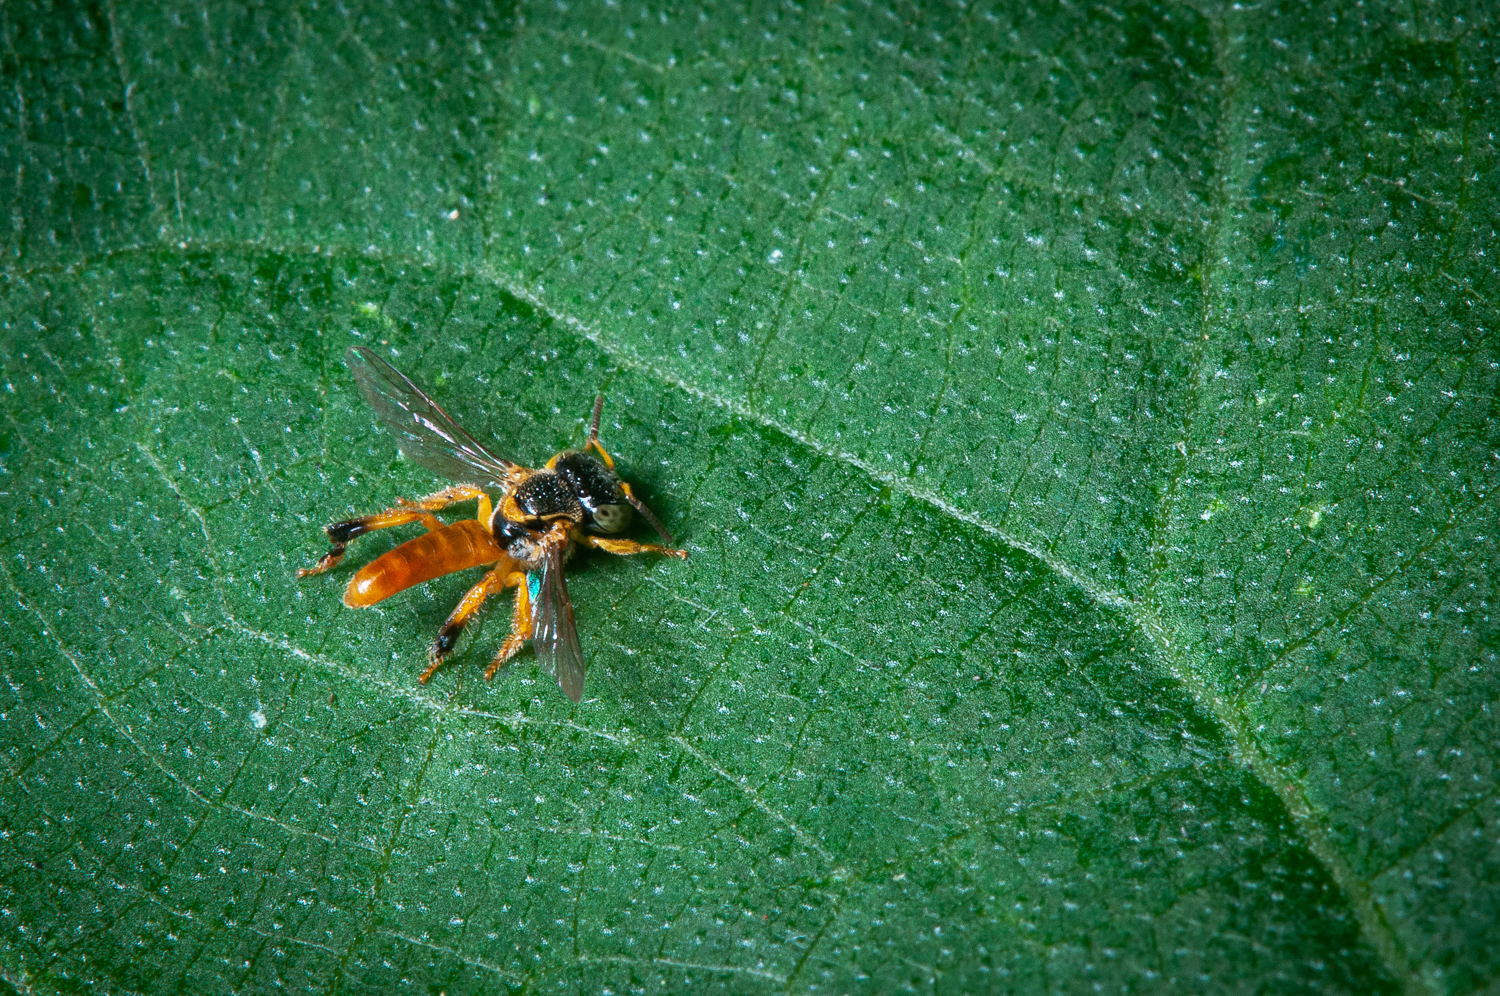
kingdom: Animalia
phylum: Arthropoda
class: Insecta
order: Hymenoptera
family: Apidae
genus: Tetragonisca
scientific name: Tetragonisca angustula
